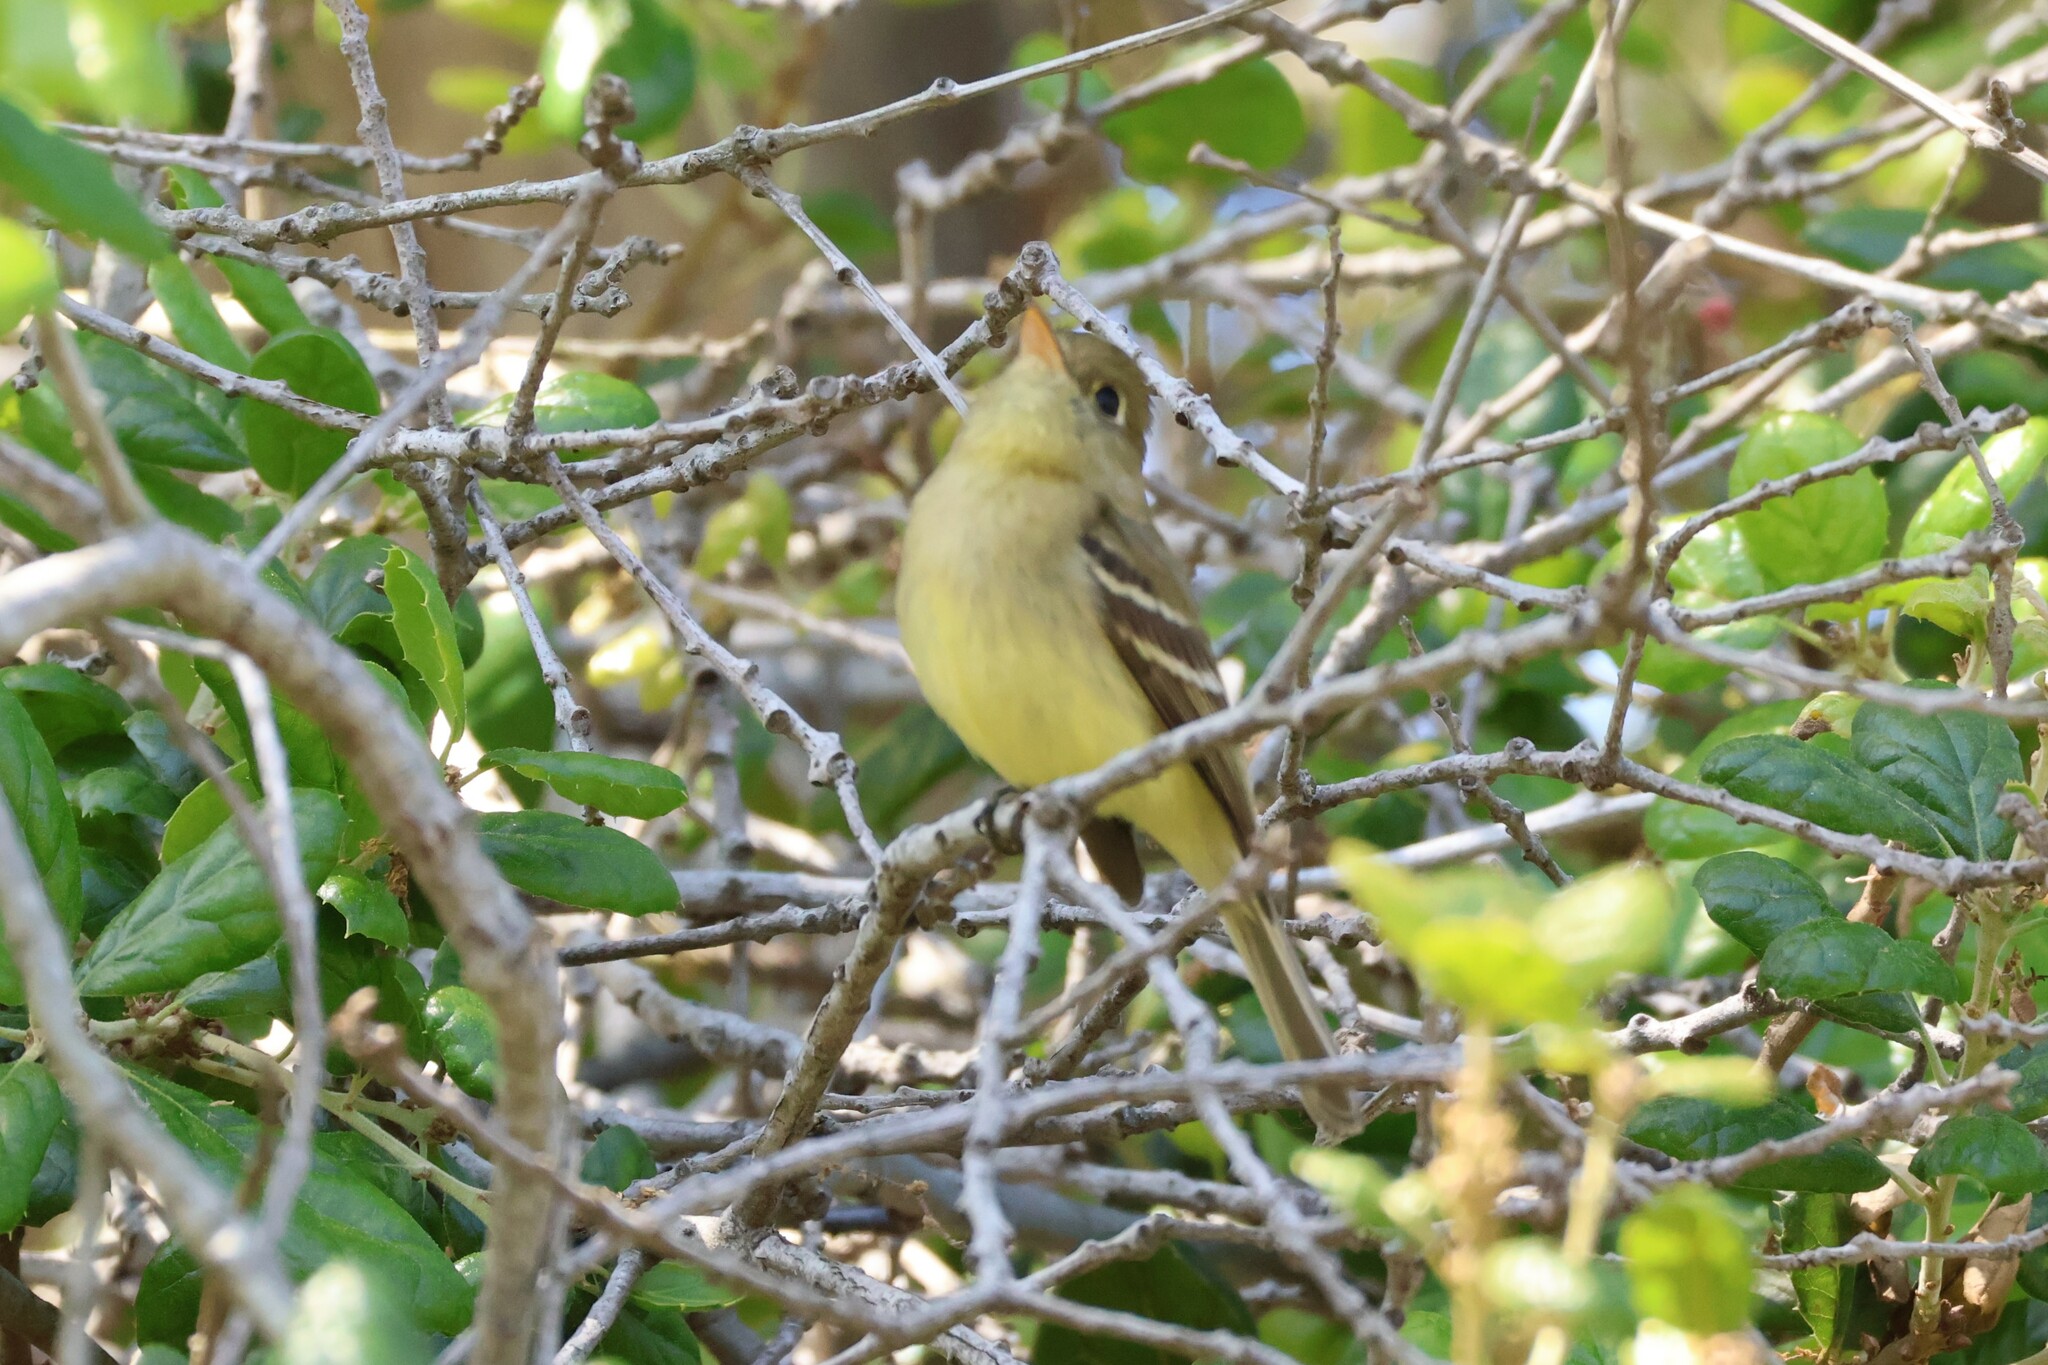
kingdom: Animalia
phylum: Chordata
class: Aves
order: Passeriformes
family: Tyrannidae
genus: Empidonax
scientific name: Empidonax difficilis
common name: Pacific-slope flycatcher
